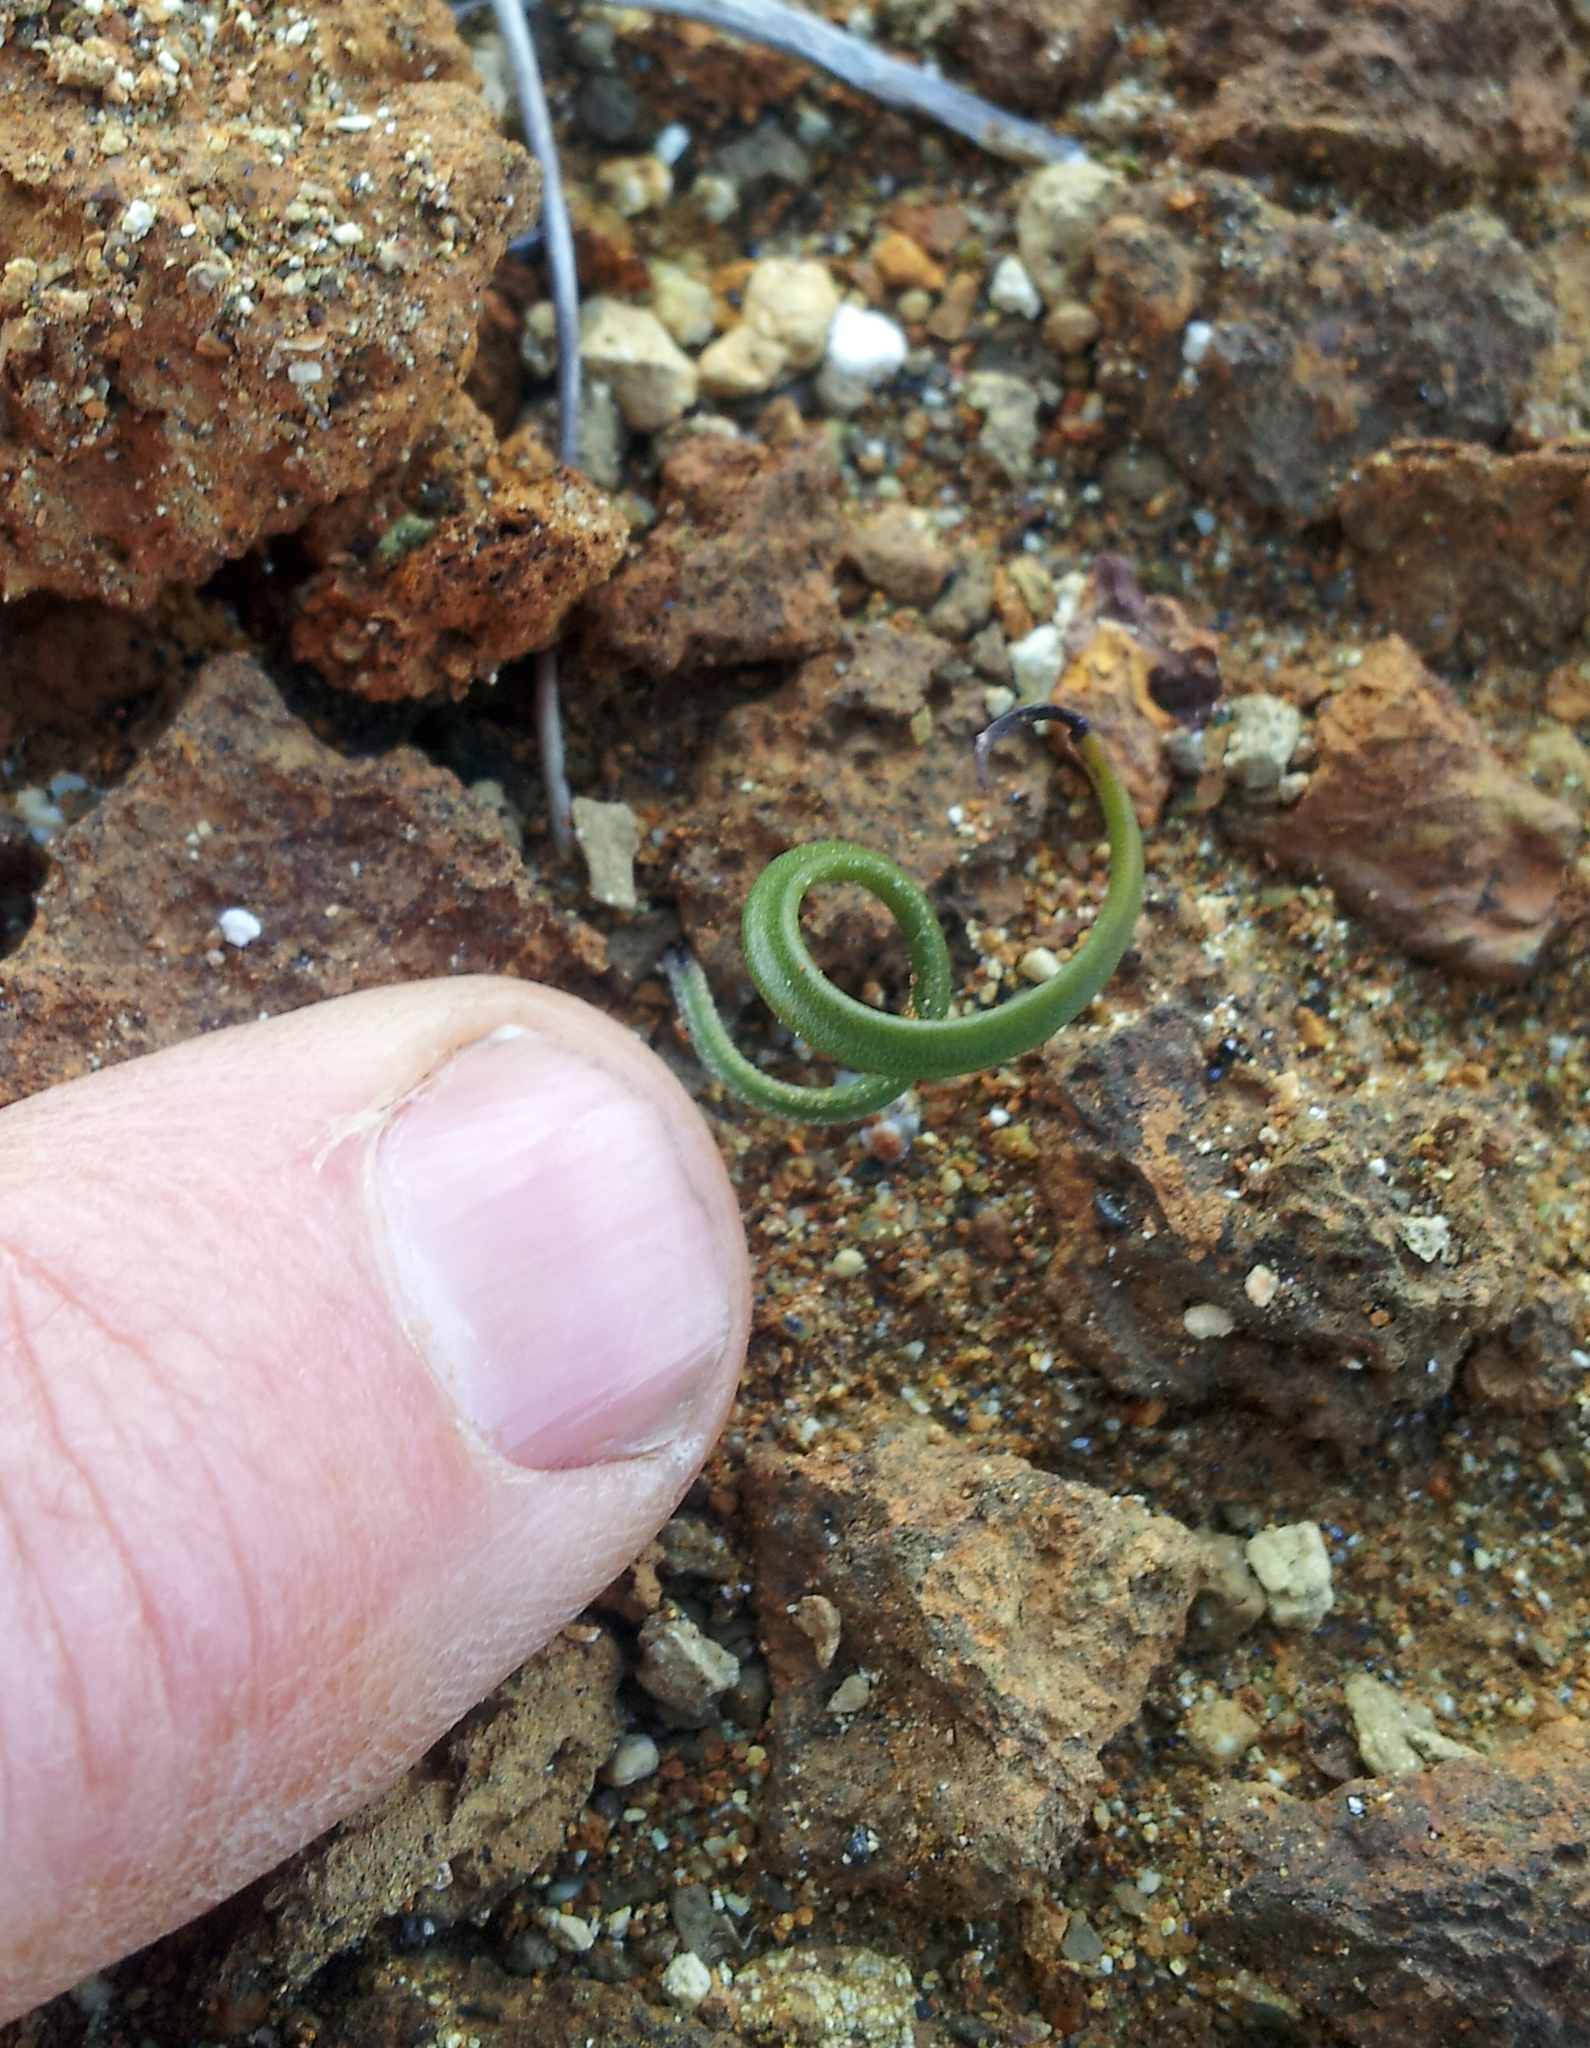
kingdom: Plantae
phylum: Tracheophyta
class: Liliopsida
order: Asparagales
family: Orchidaceae
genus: Thelymitra
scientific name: Thelymitra matthewsii
